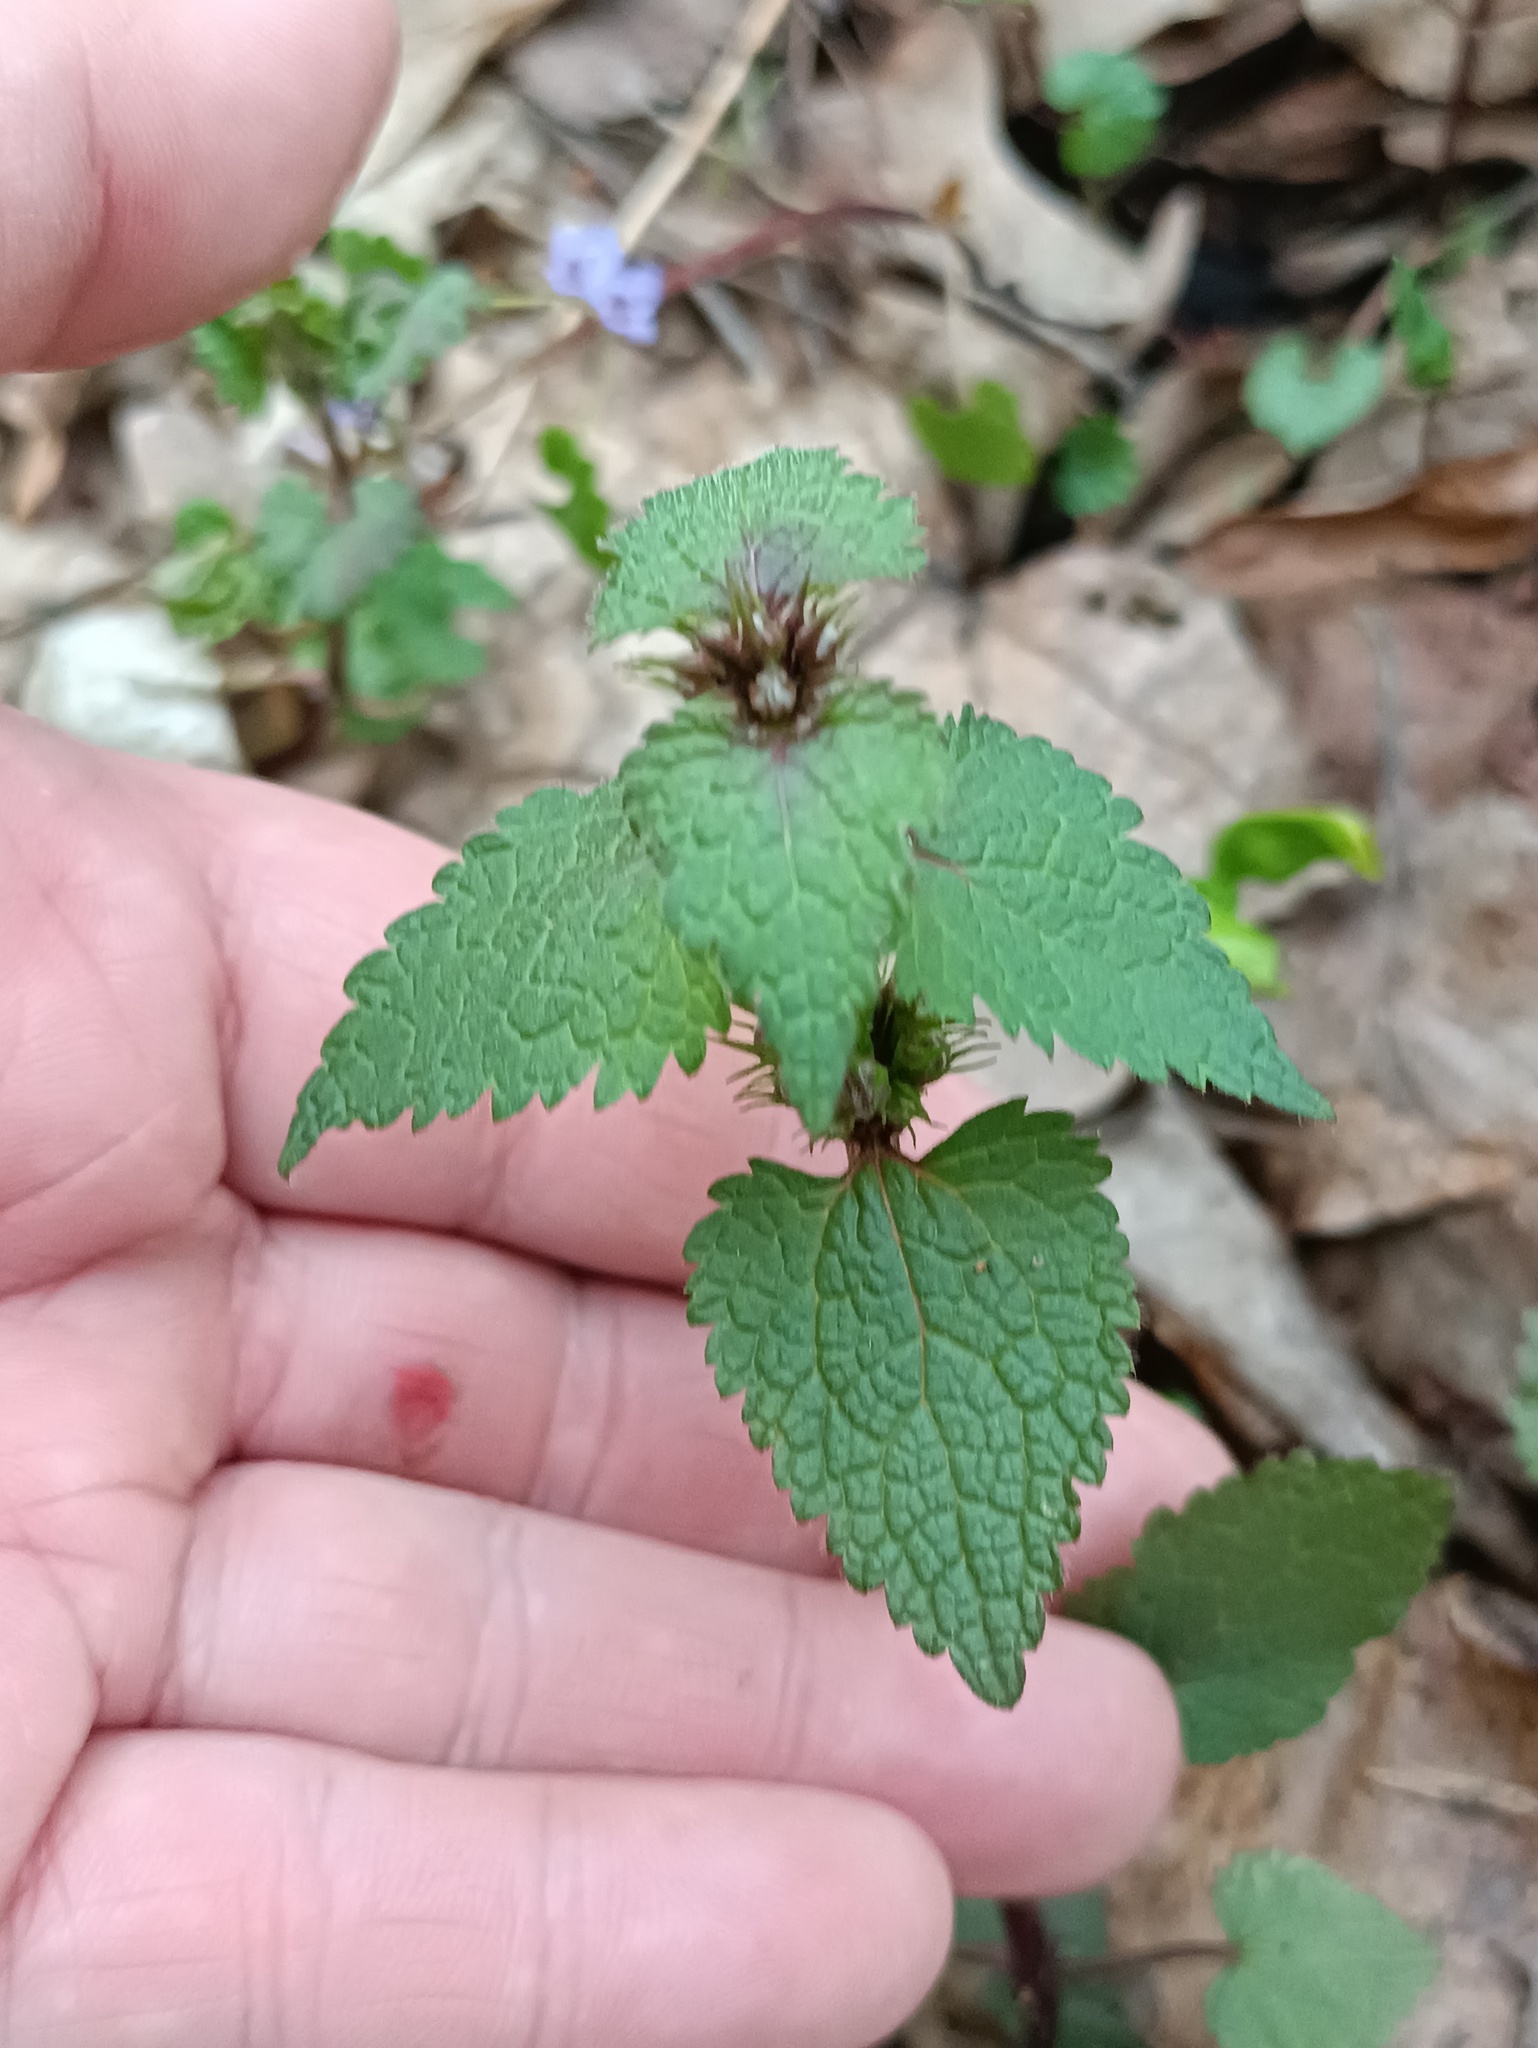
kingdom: Plantae
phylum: Tracheophyta
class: Magnoliopsida
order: Lamiales
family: Lamiaceae
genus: Lamium
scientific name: Lamium maculatum
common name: Spotted dead-nettle
